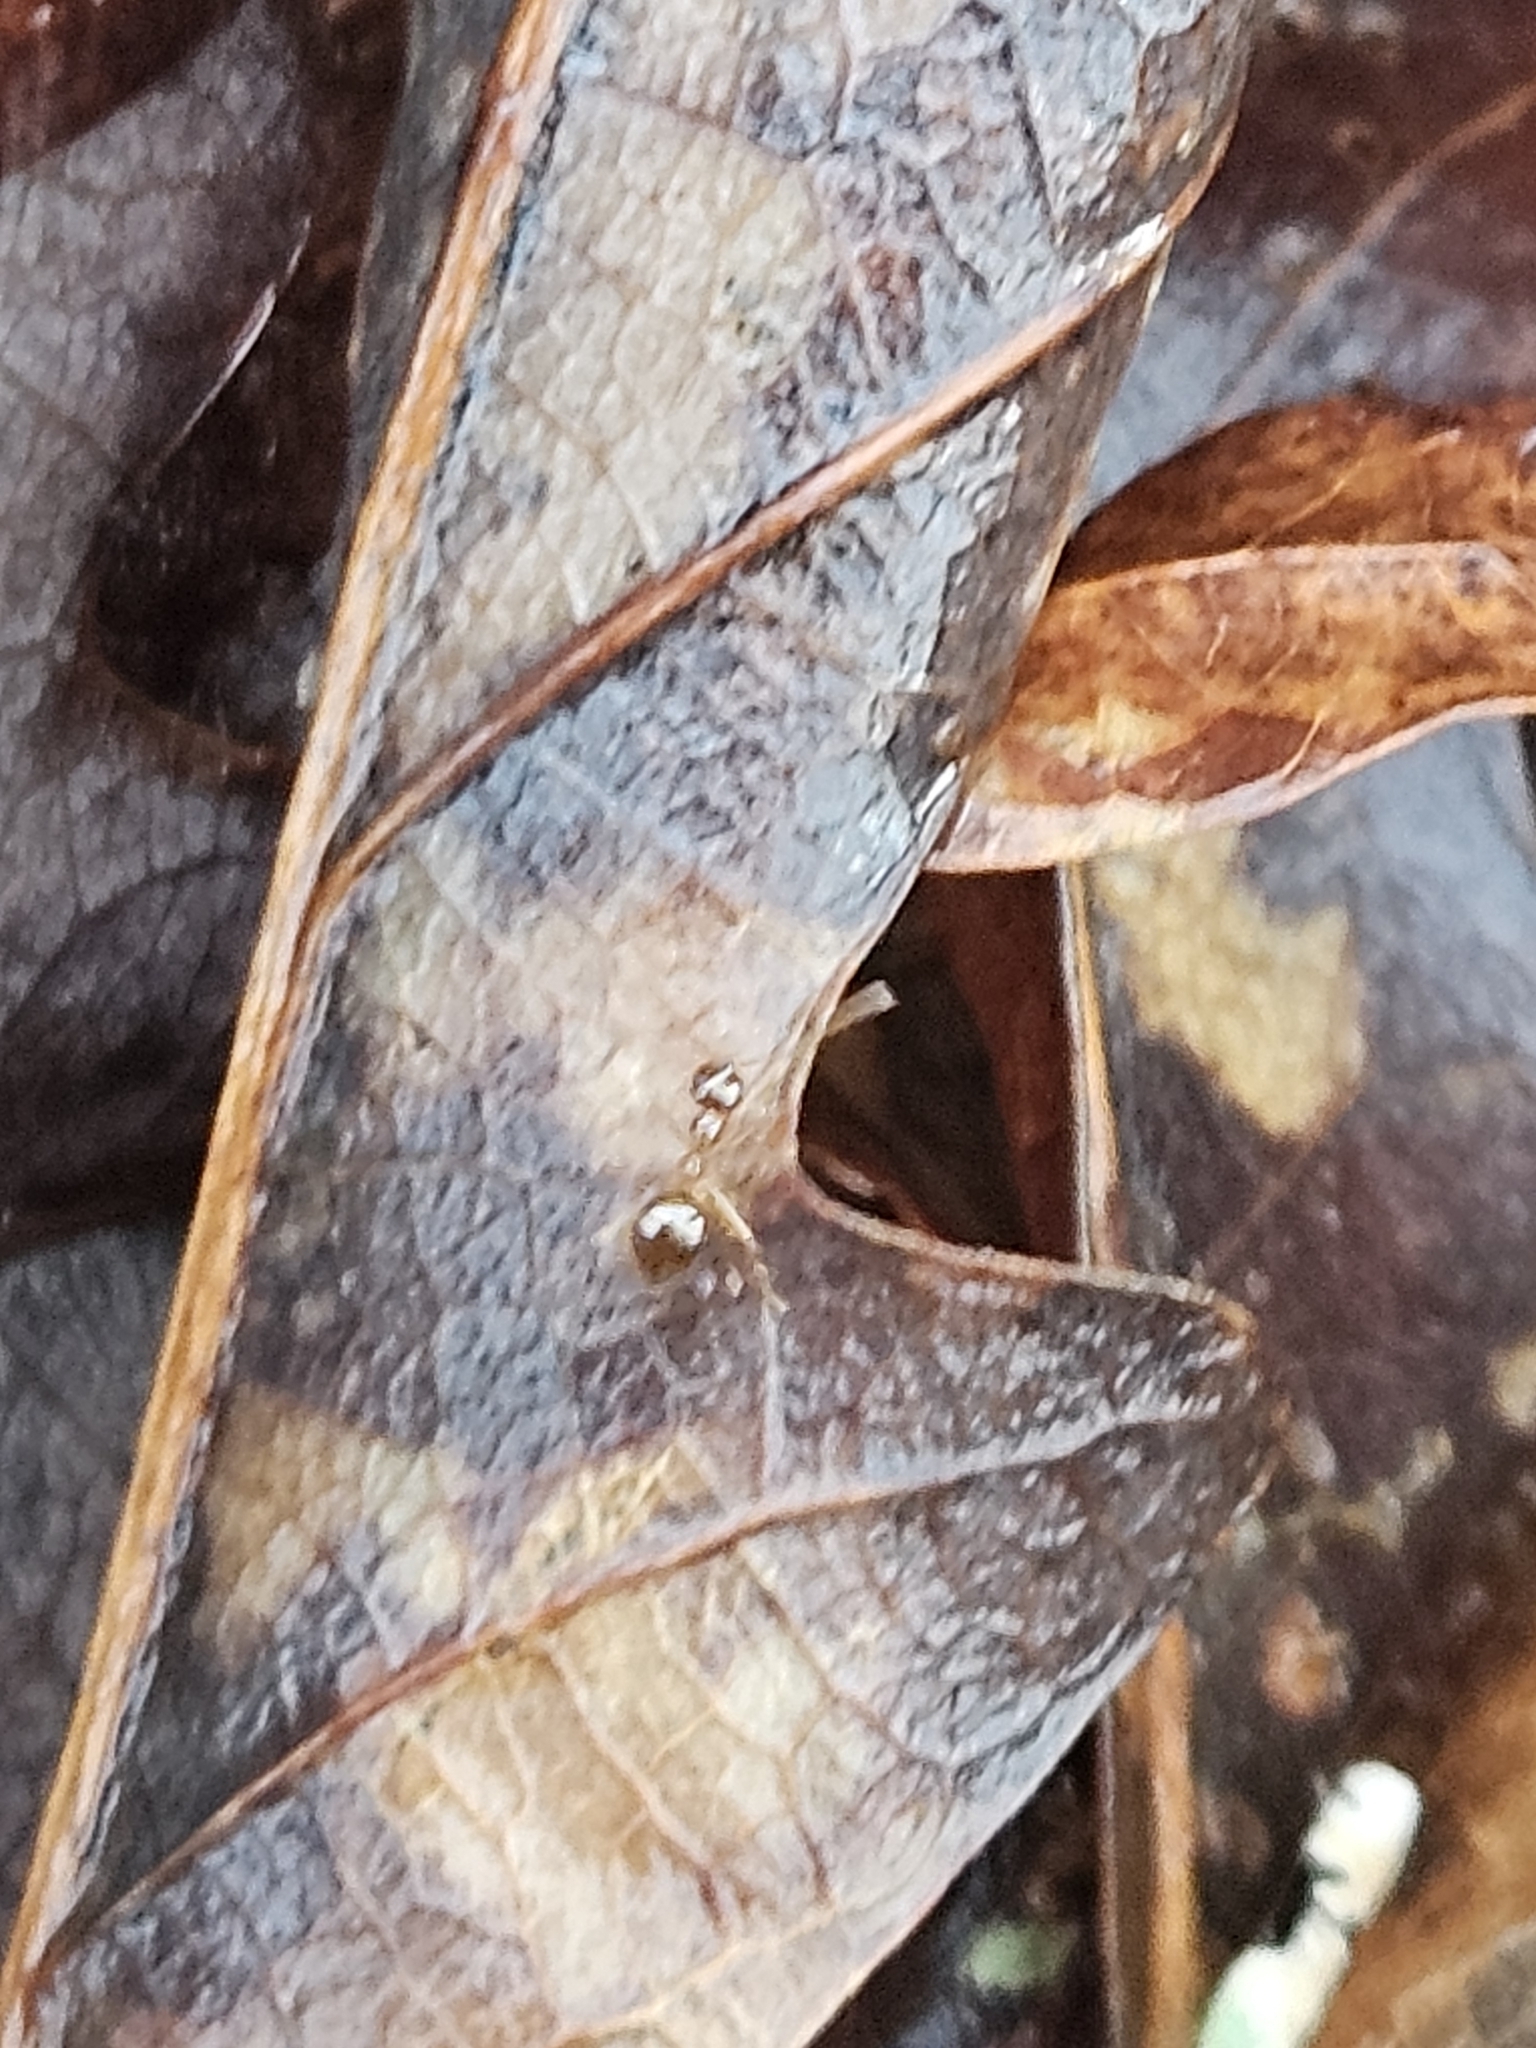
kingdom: Animalia
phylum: Arthropoda
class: Insecta
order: Hymenoptera
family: Formicidae
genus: Prenolepis
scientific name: Prenolepis imparis
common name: Small honey ant
